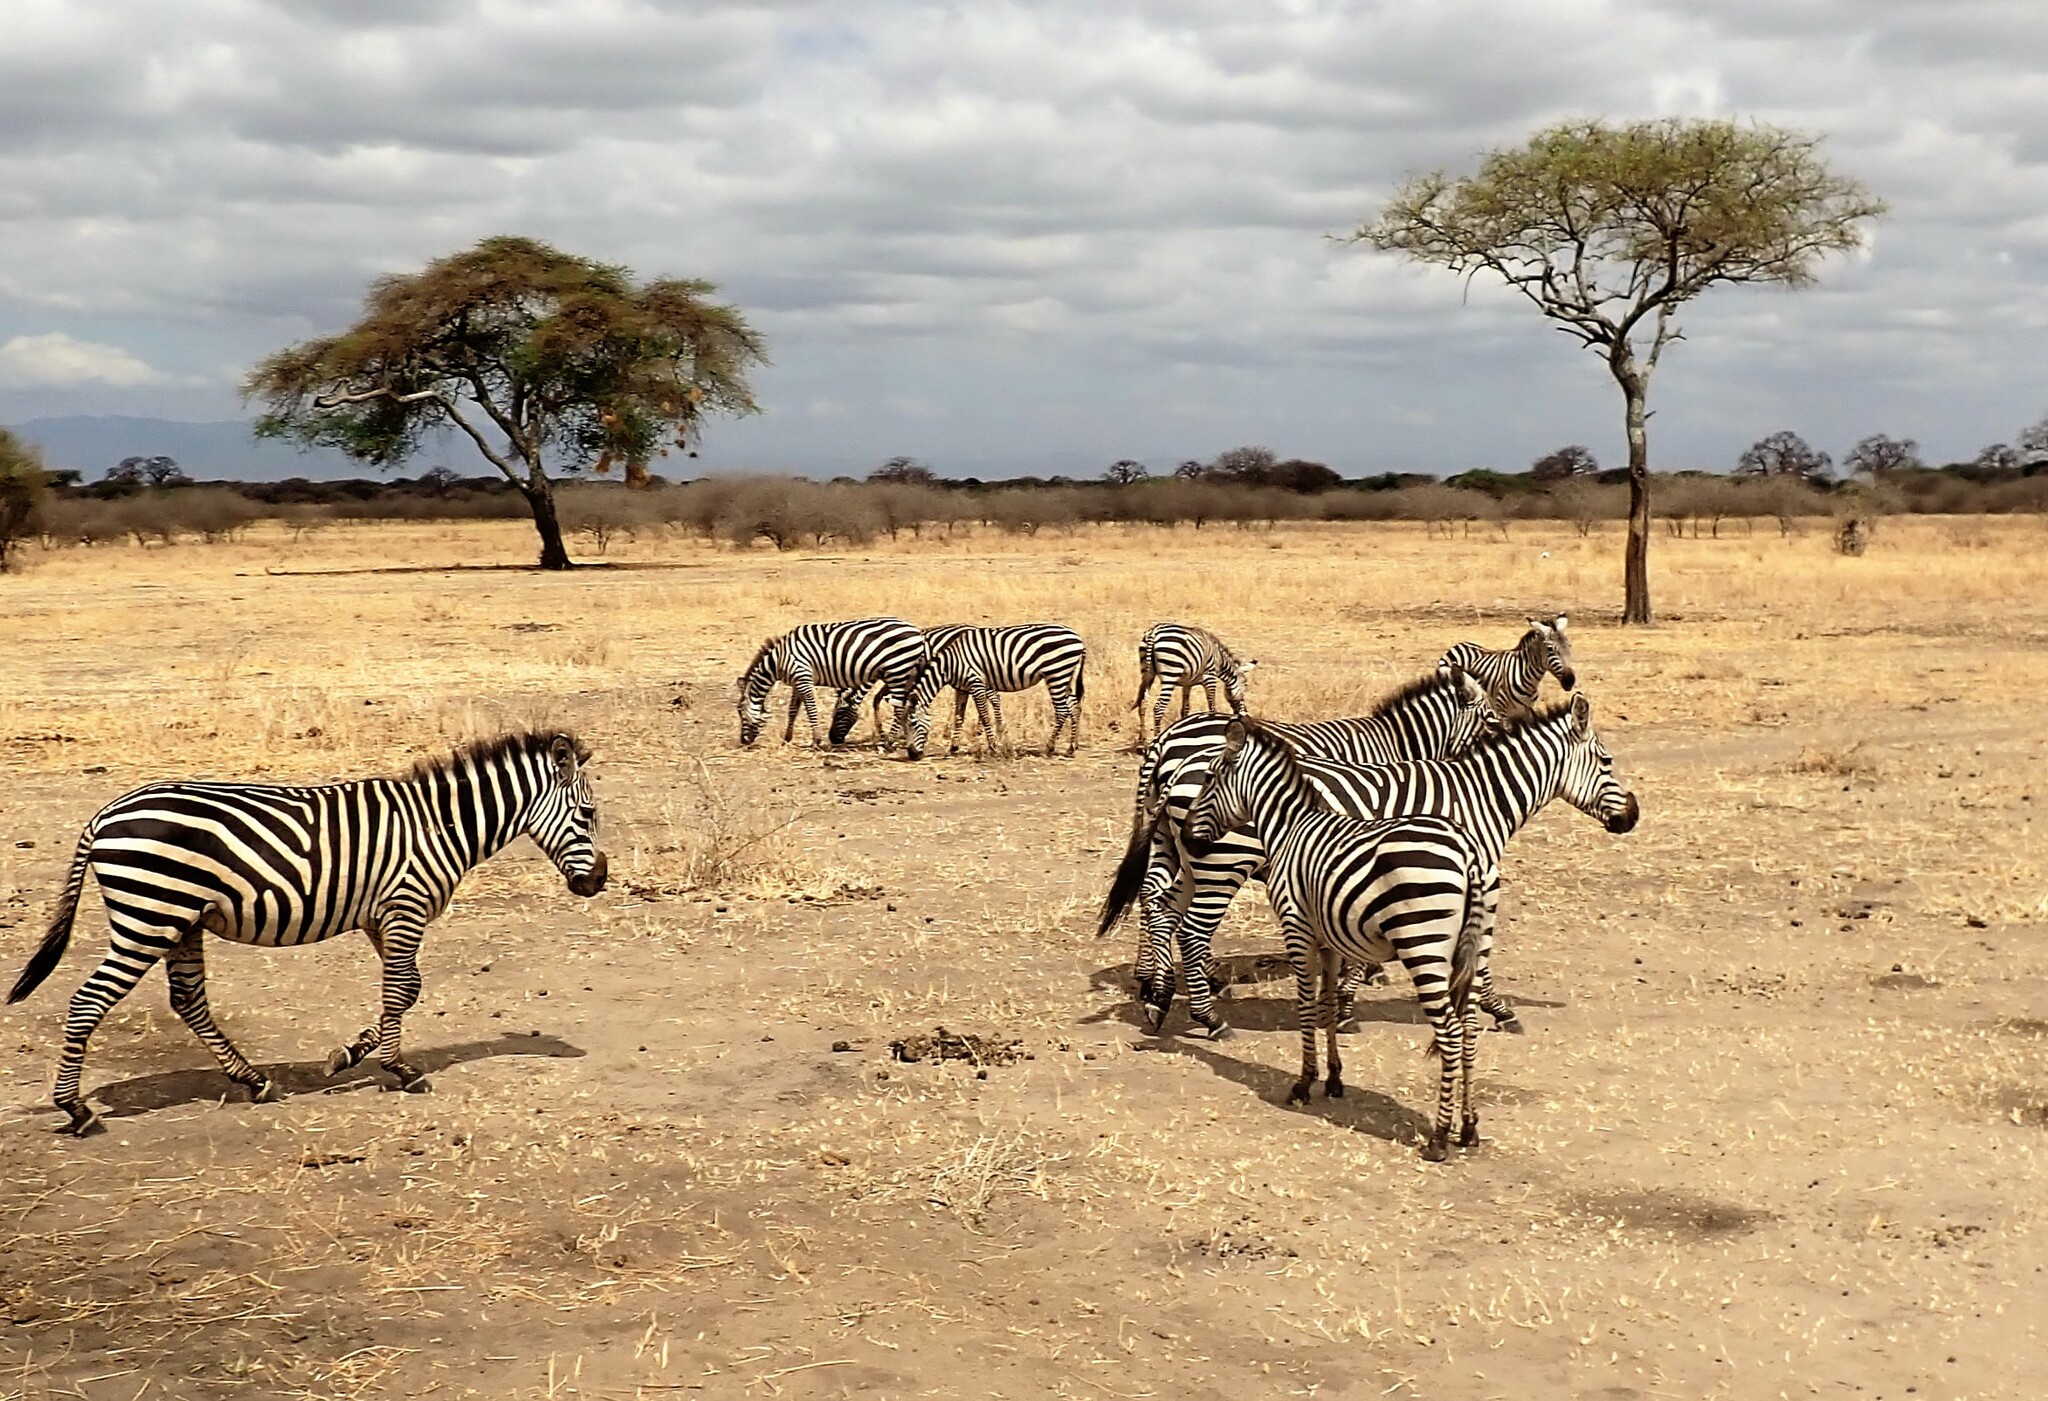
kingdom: Animalia
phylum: Chordata
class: Mammalia
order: Perissodactyla
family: Equidae
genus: Equus
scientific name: Equus quagga
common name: Plains zebra
